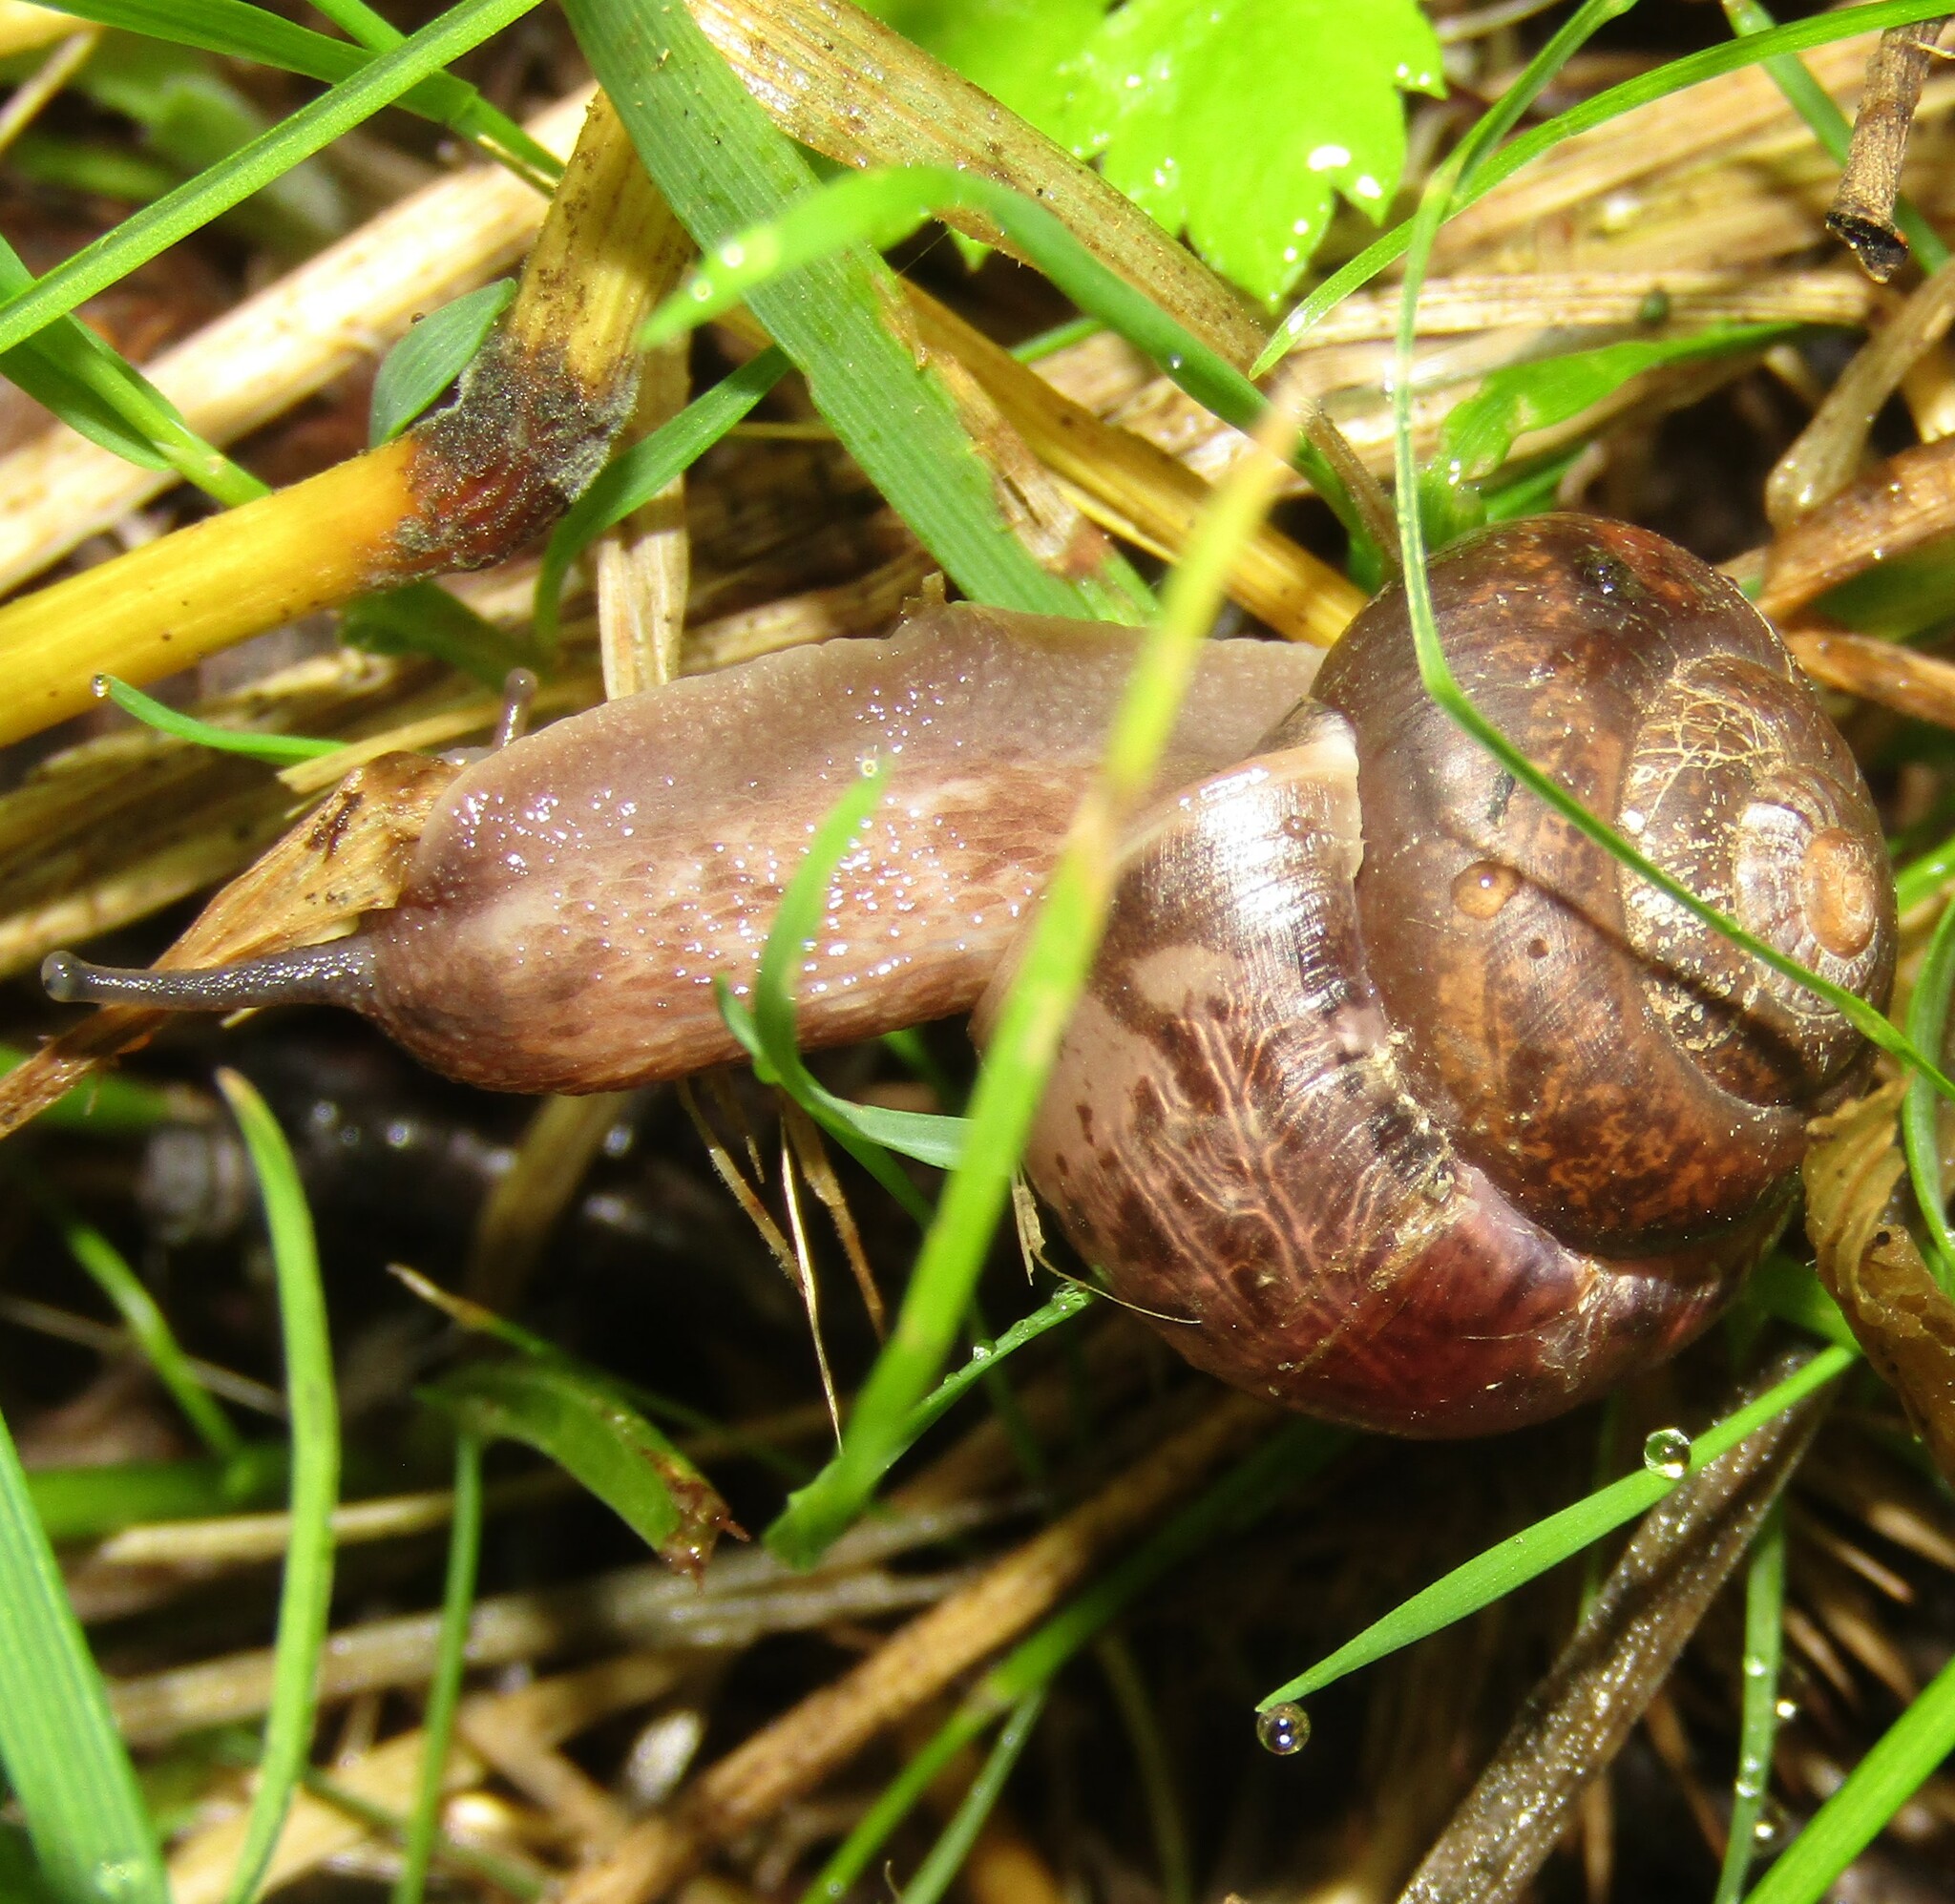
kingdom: Animalia
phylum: Mollusca
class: Gastropoda
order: Stylommatophora
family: Camaenidae
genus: Fruticicola
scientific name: Fruticicola fruticum
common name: Bush snail
